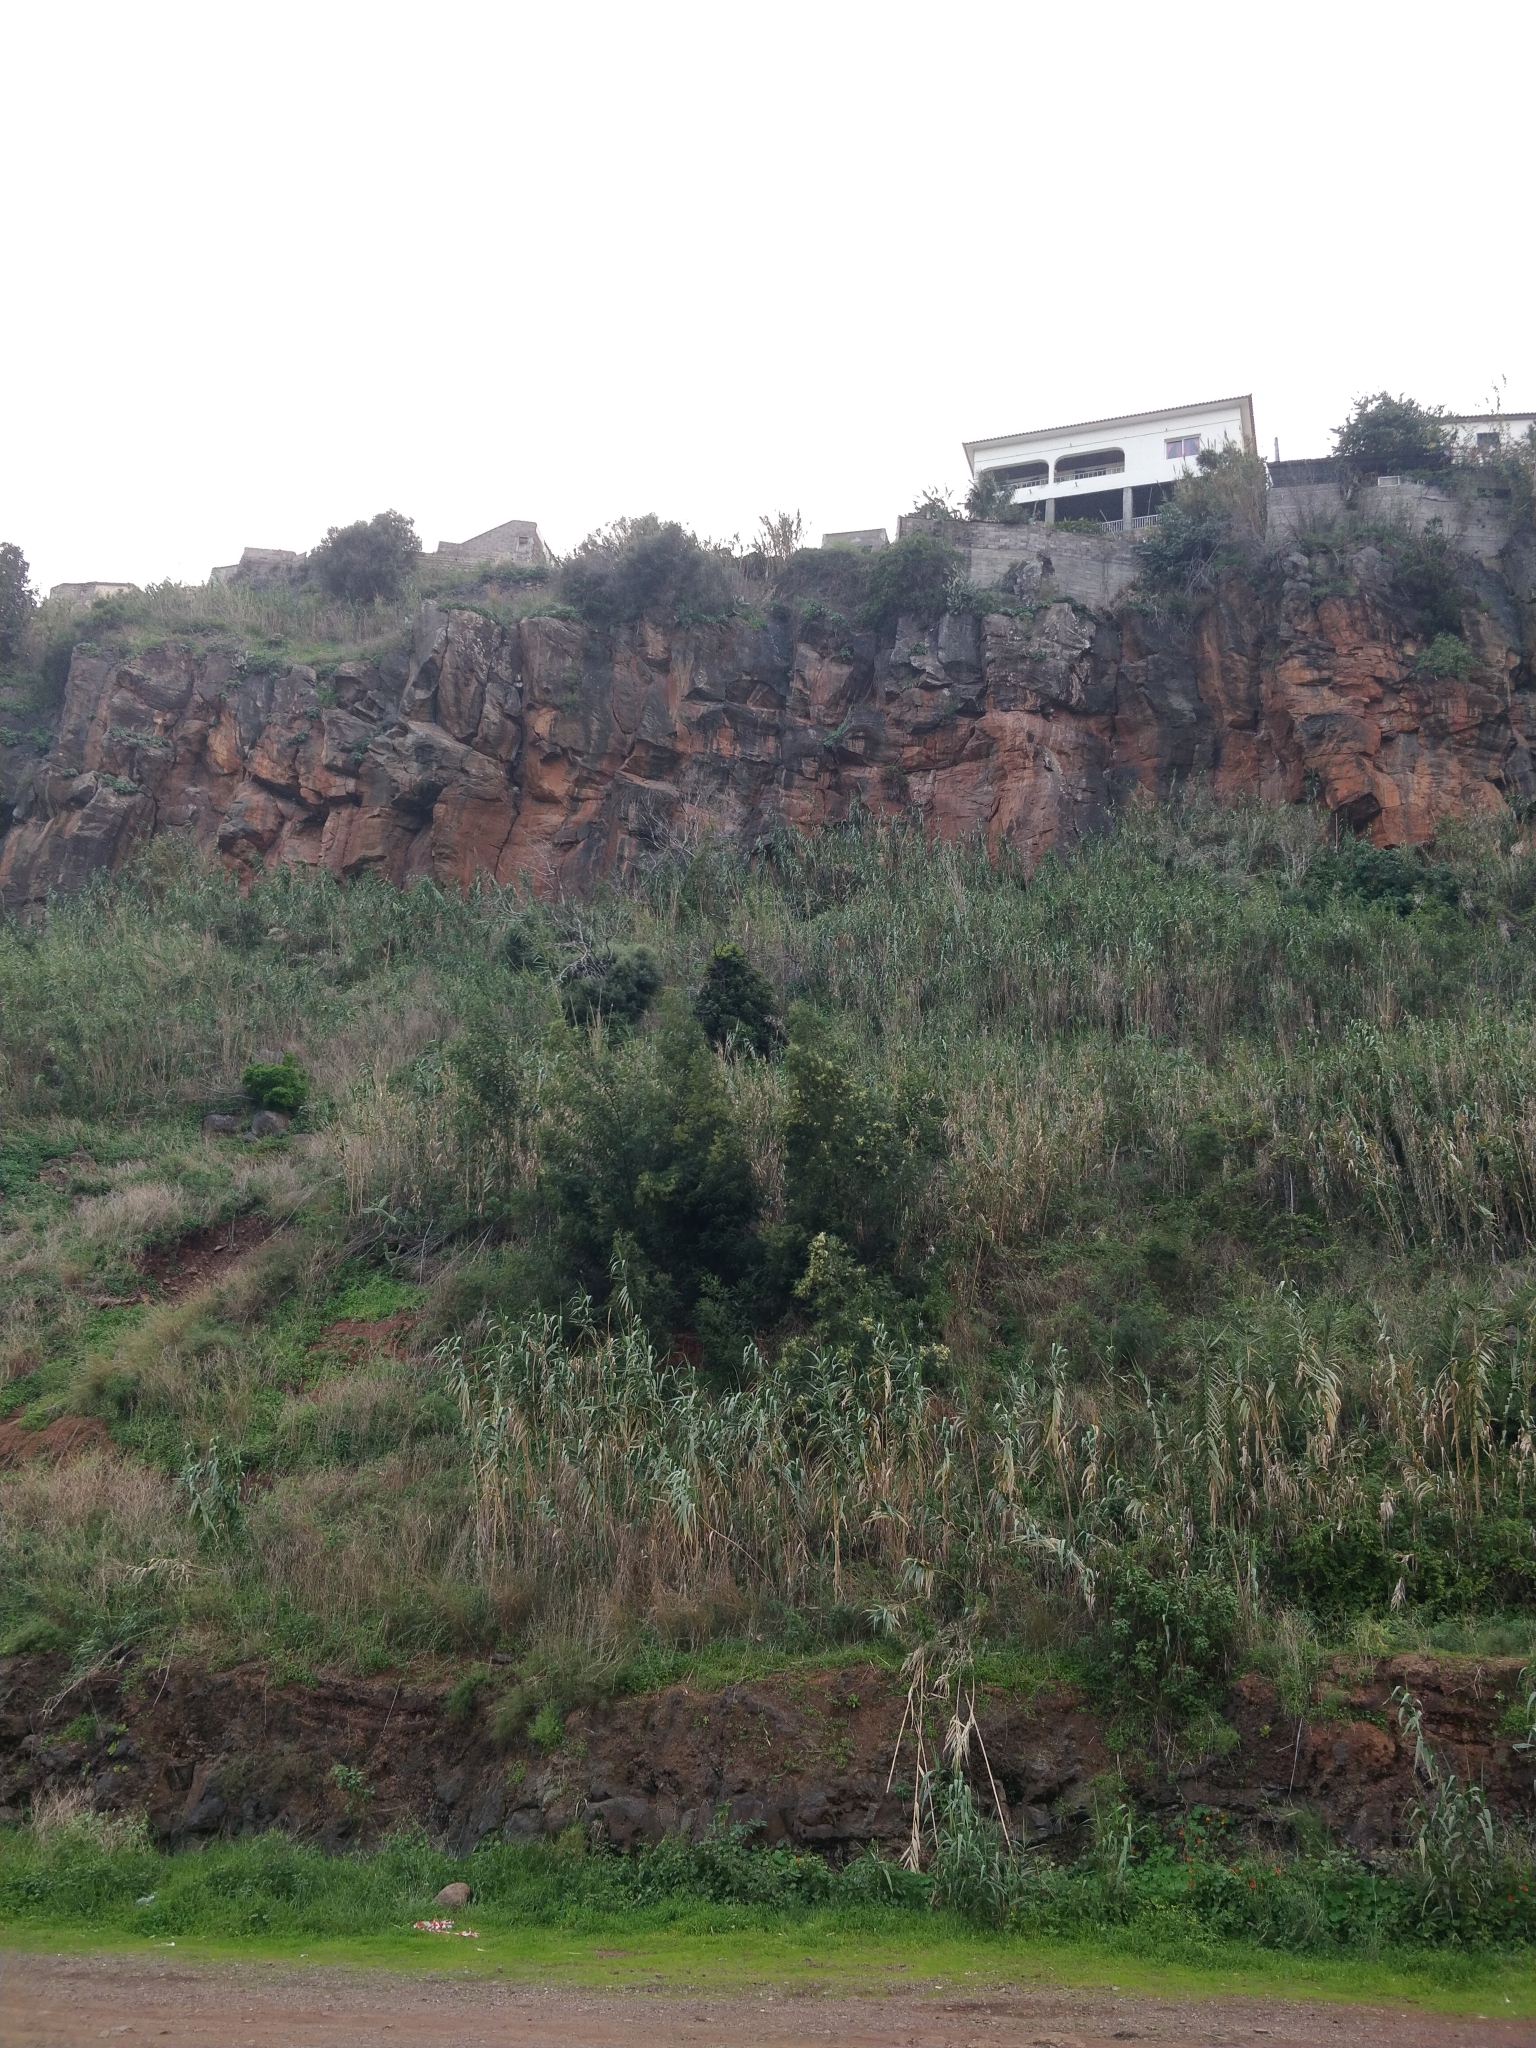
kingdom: Plantae
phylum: Tracheophyta
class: Magnoliopsida
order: Fabales
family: Fabaceae
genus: Acacia
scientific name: Acacia mearnsii
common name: Black wattle
